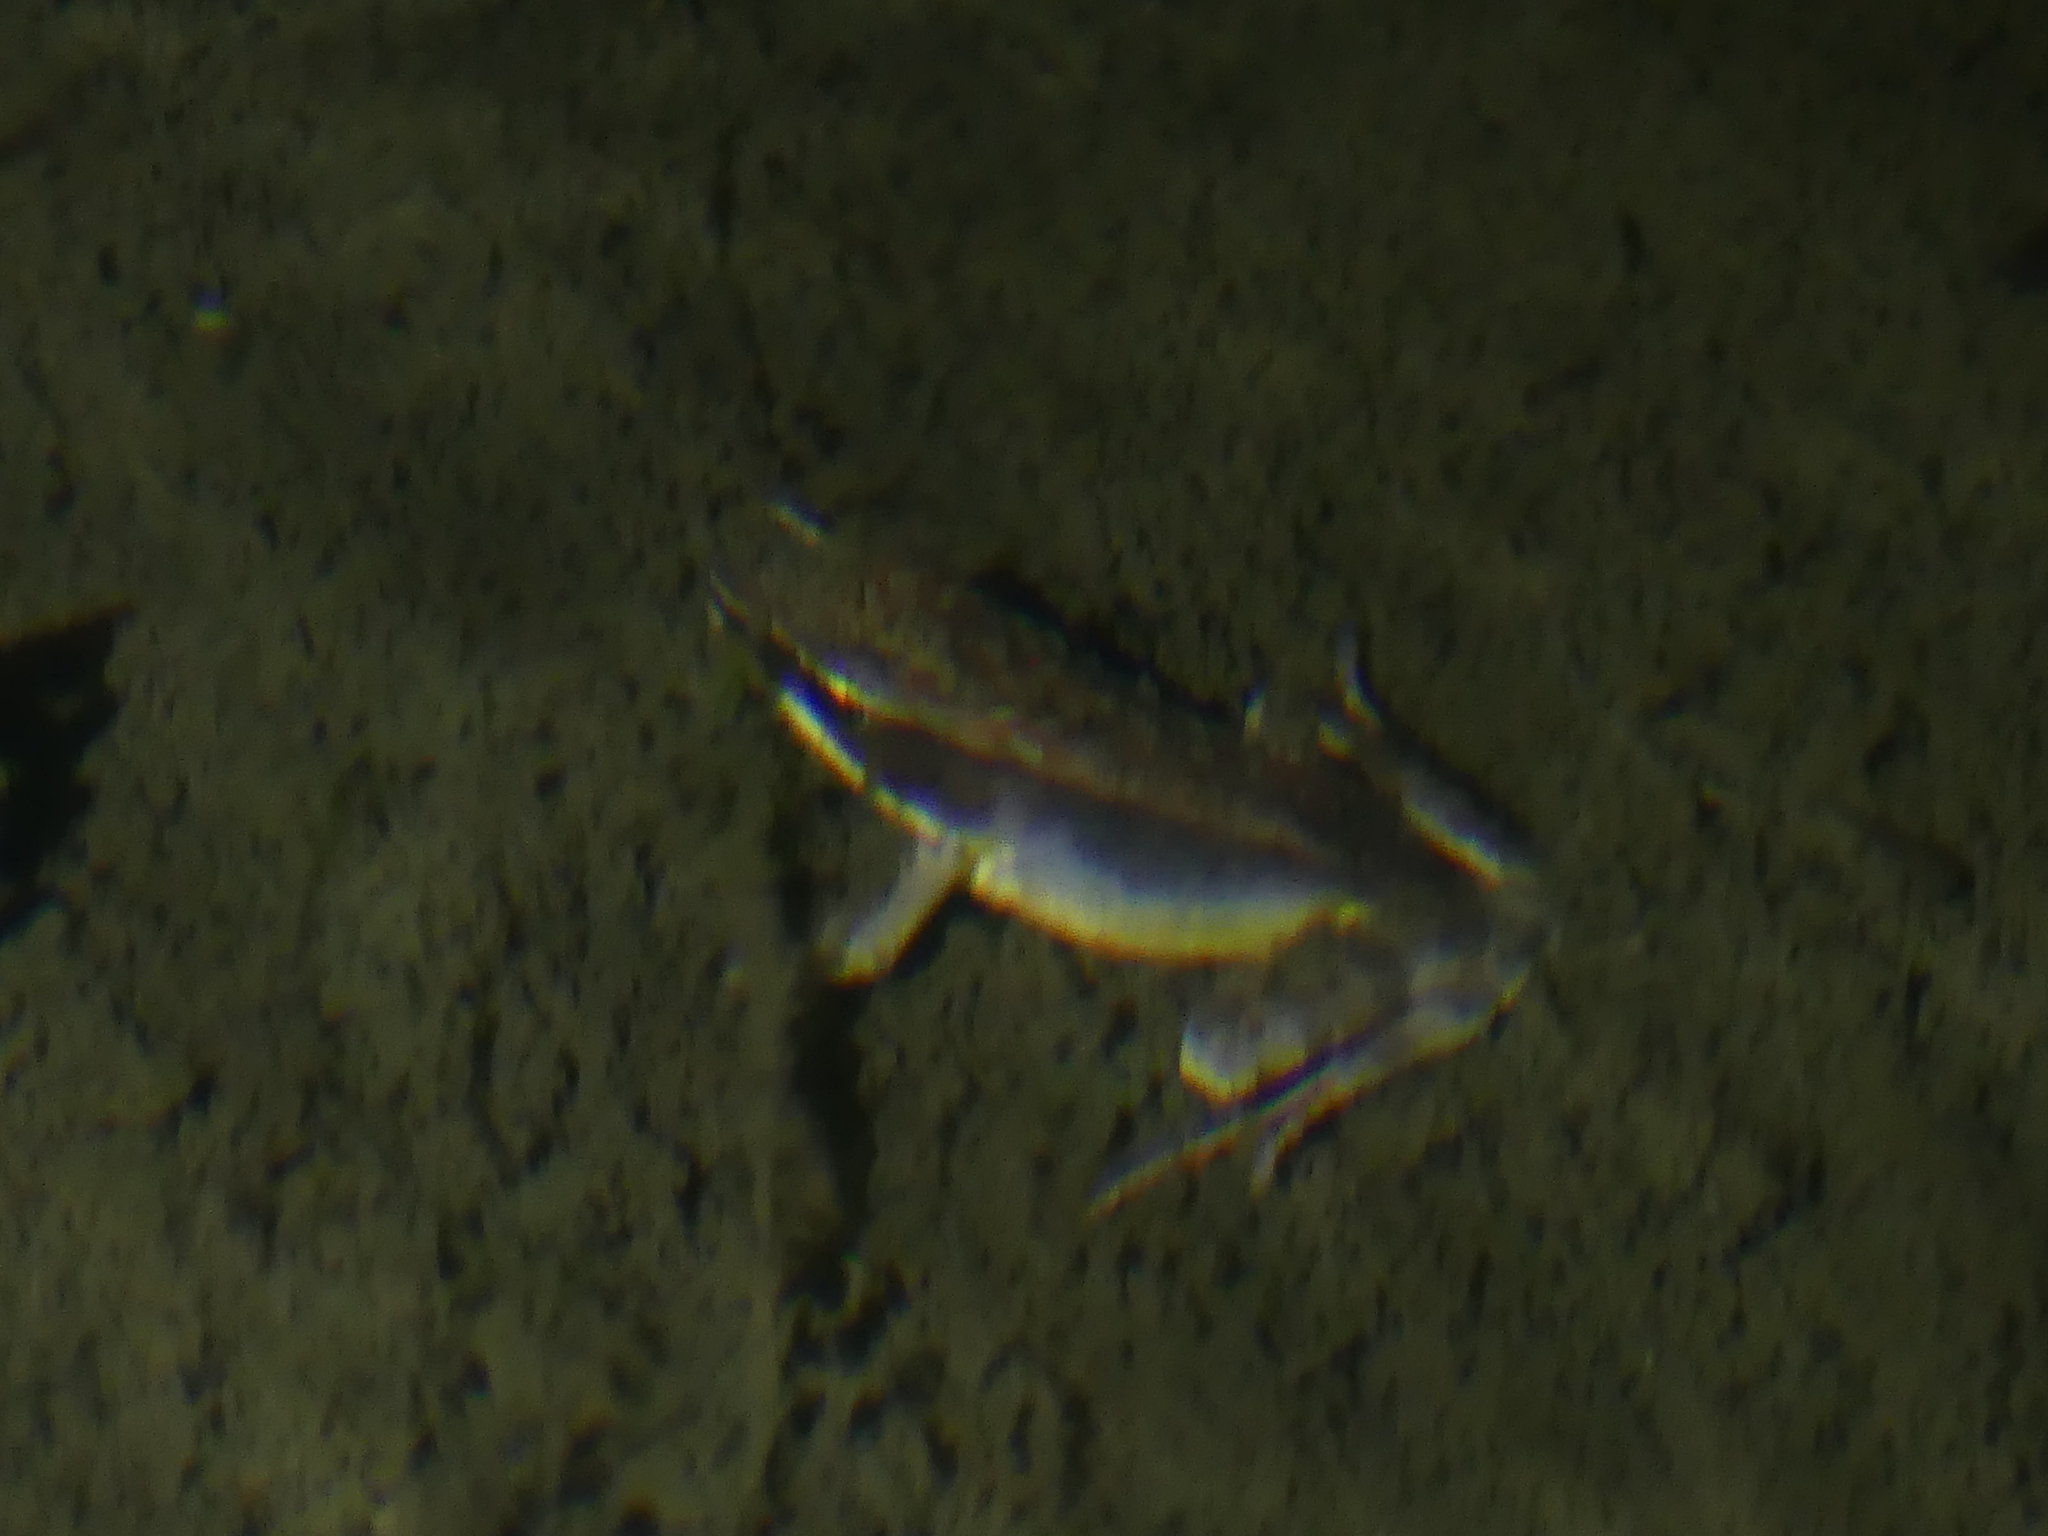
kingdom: Animalia
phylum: Chordata
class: Amphibia
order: Anura
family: Ranidae
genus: Lithobates
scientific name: Lithobates warszewitschii
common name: Warszewitsch's frog
